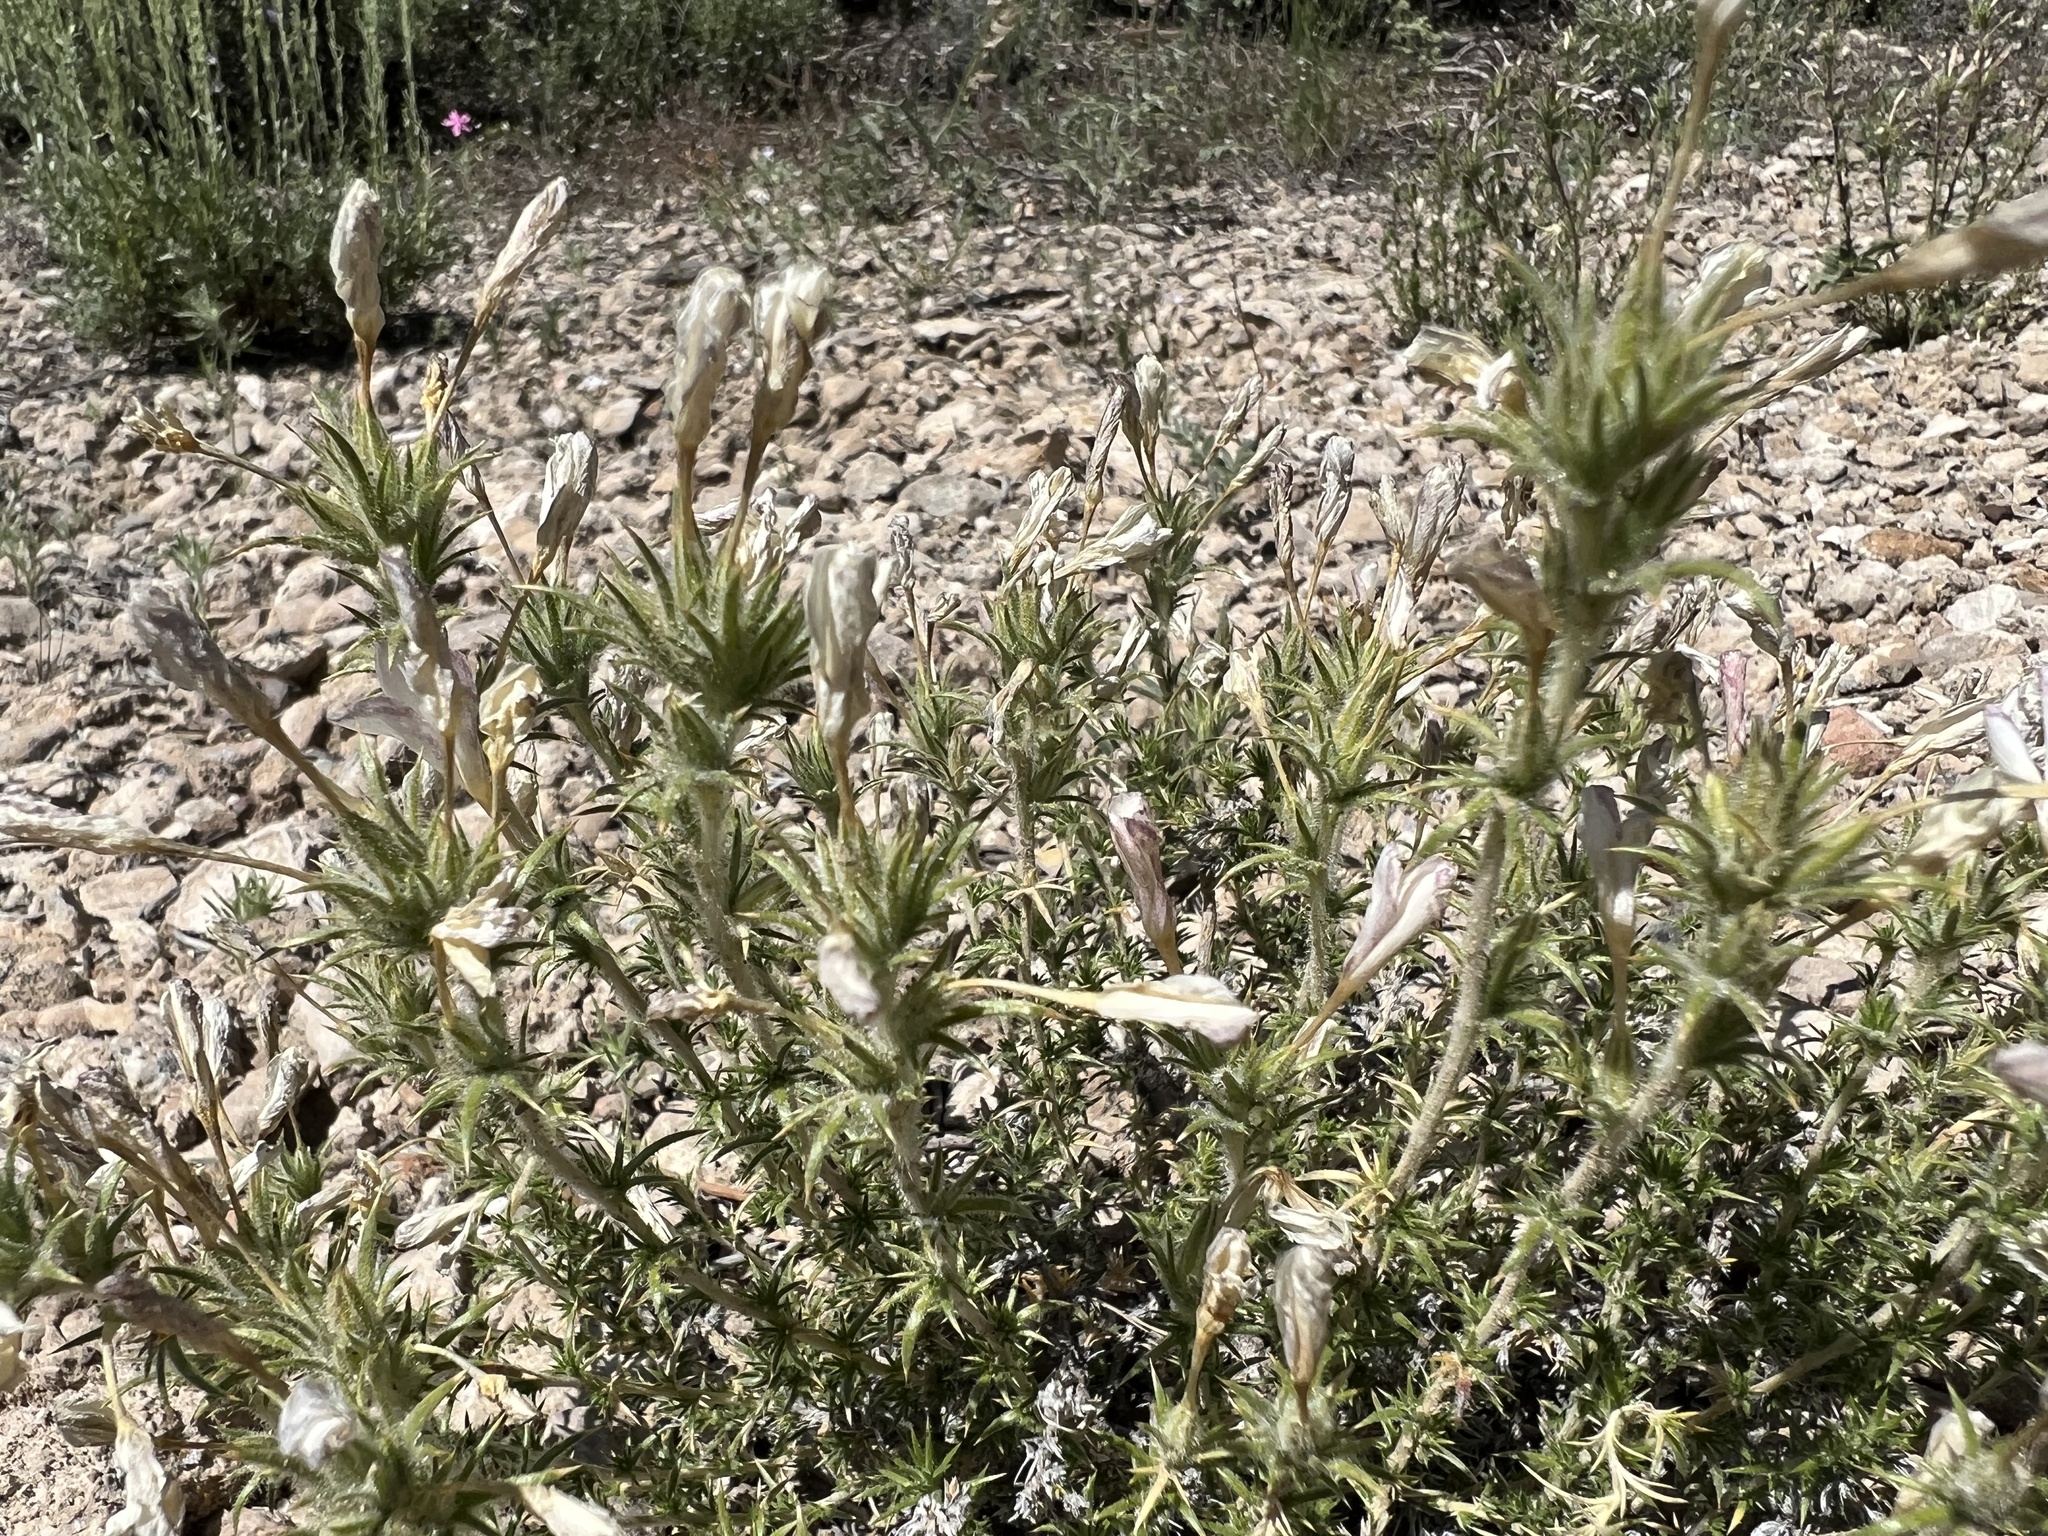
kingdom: Plantae
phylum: Tracheophyta
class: Magnoliopsida
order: Ericales
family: Polemoniaceae
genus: Linanthus
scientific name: Linanthus pungens
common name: Granite prickly phlox
